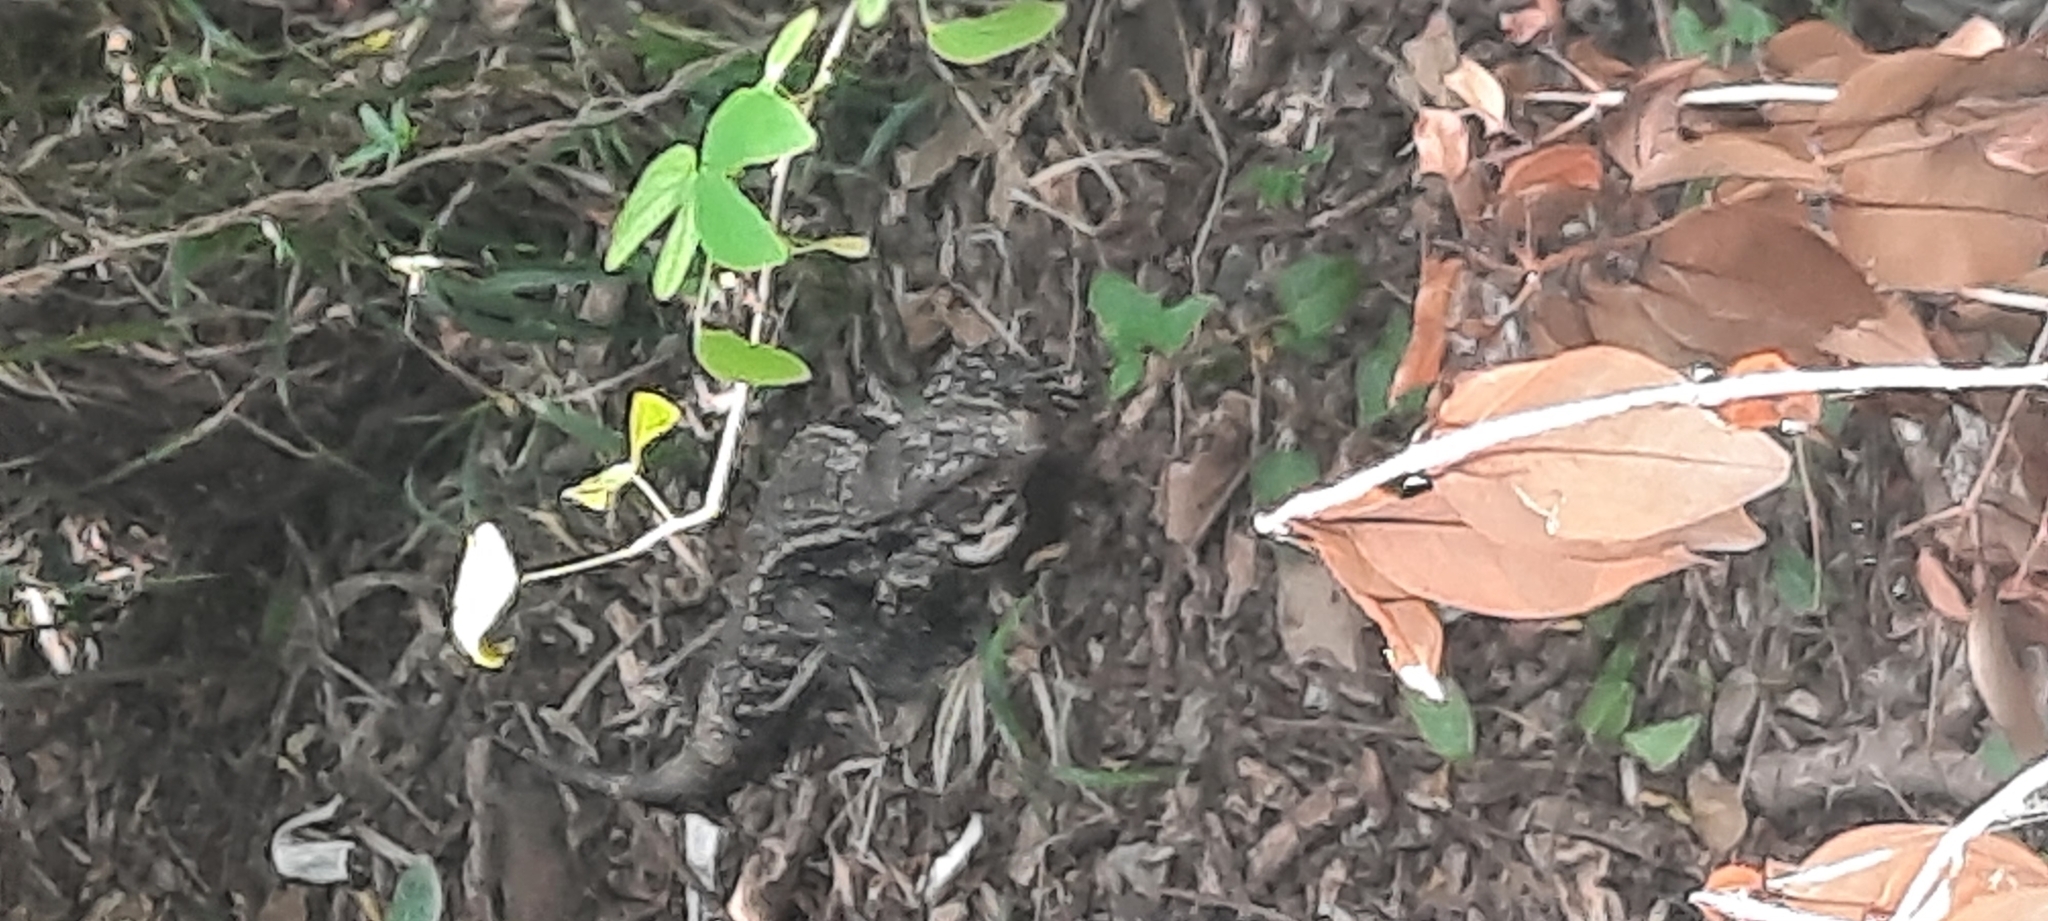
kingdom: Animalia
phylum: Chordata
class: Squamata
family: Teiidae
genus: Salvator
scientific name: Salvator merianae
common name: Argentine black and white tegu
